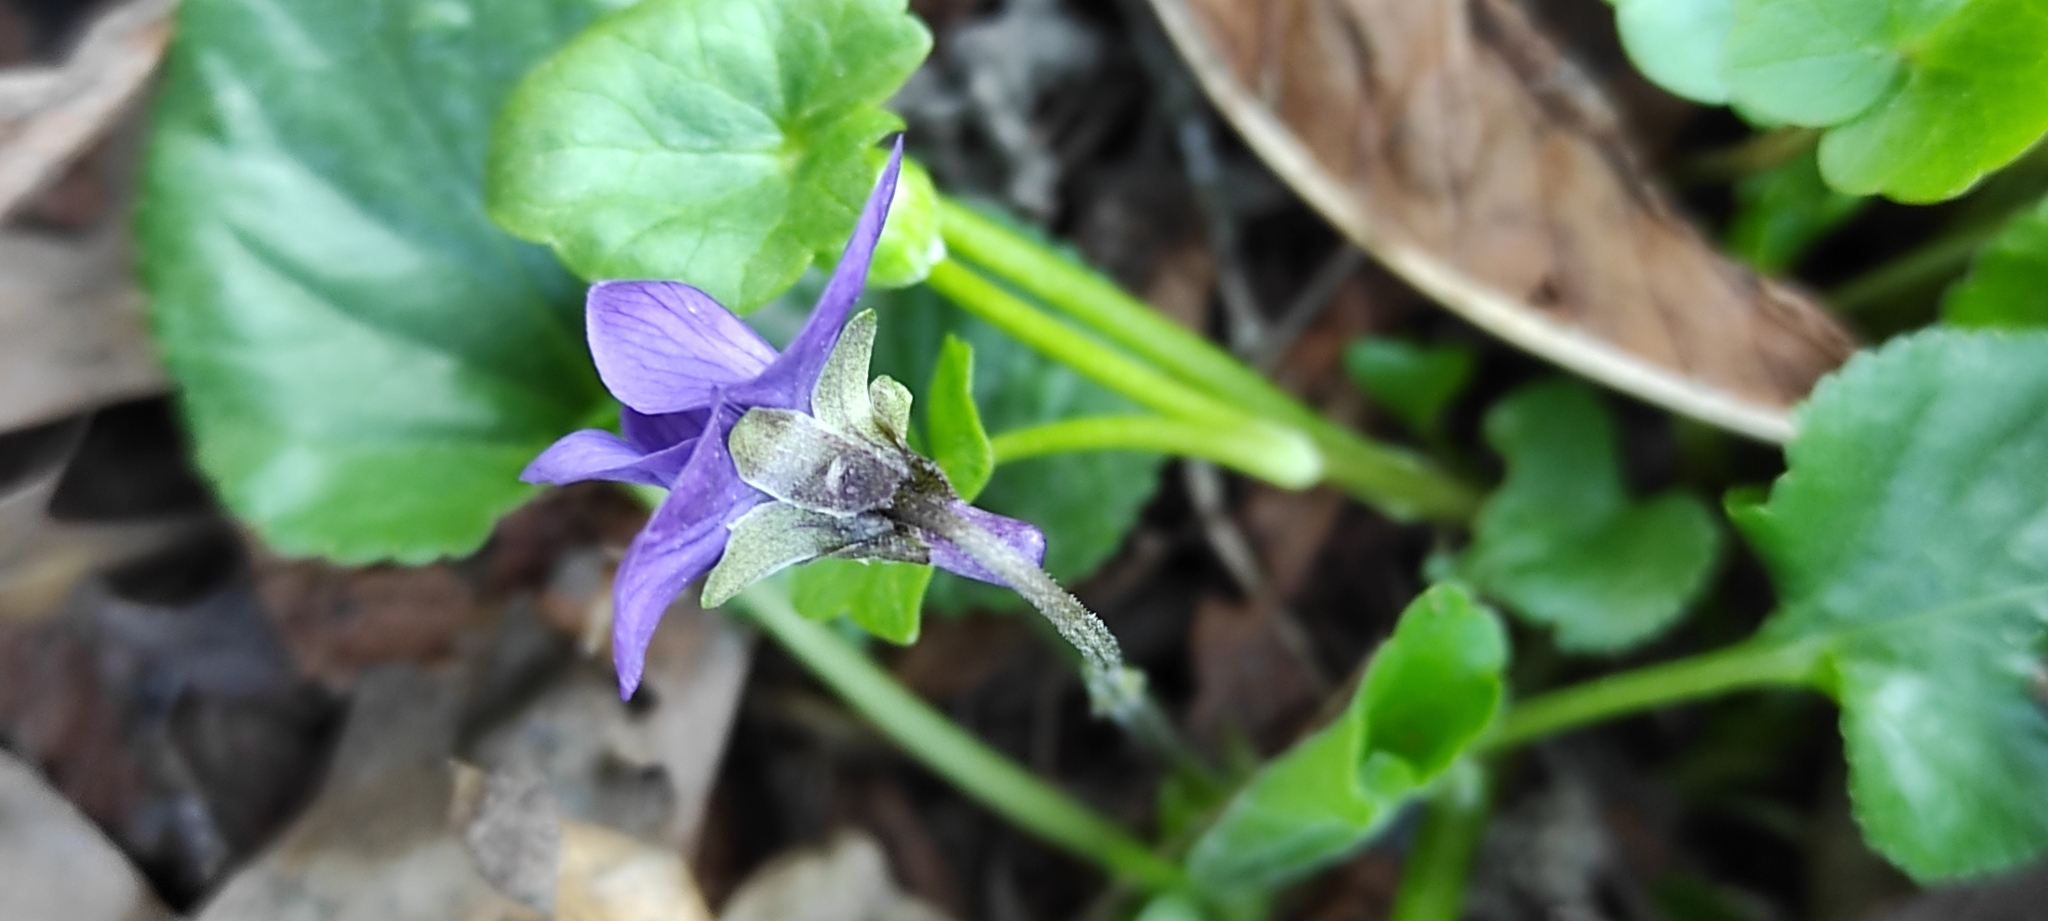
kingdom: Plantae
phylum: Tracheophyta
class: Magnoliopsida
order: Malpighiales
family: Violaceae
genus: Viola
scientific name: Viola odorata
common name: Sweet violet
